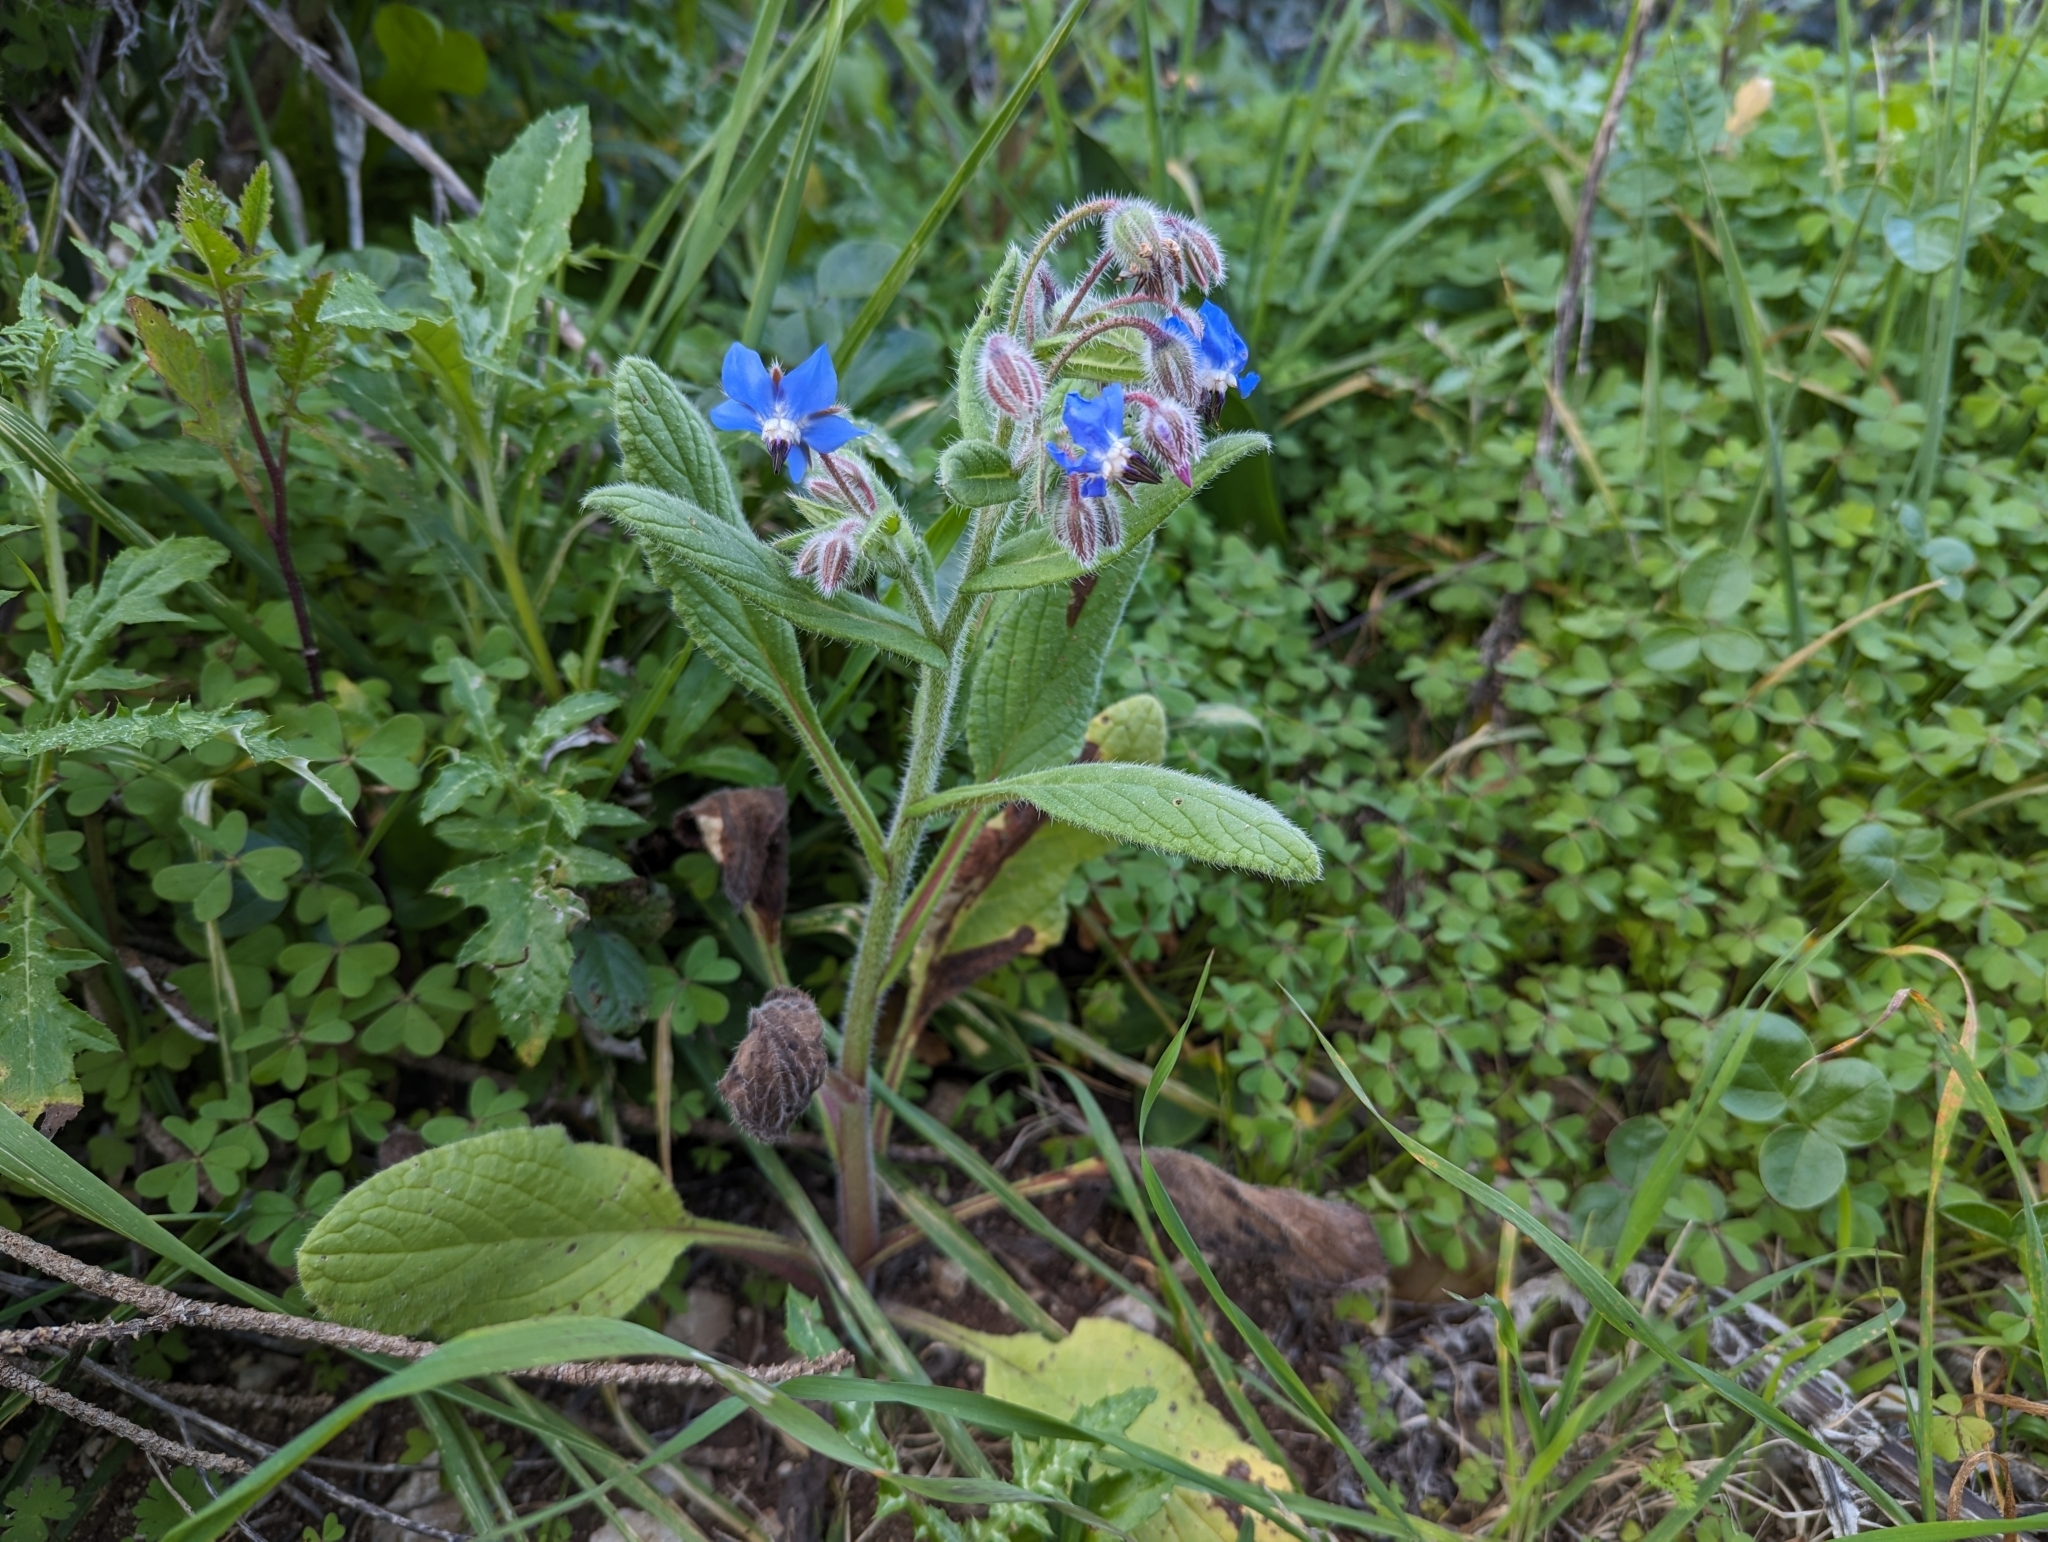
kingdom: Plantae
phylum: Tracheophyta
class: Magnoliopsida
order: Boraginales
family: Boraginaceae
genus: Borago
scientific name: Borago officinalis
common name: Borage
